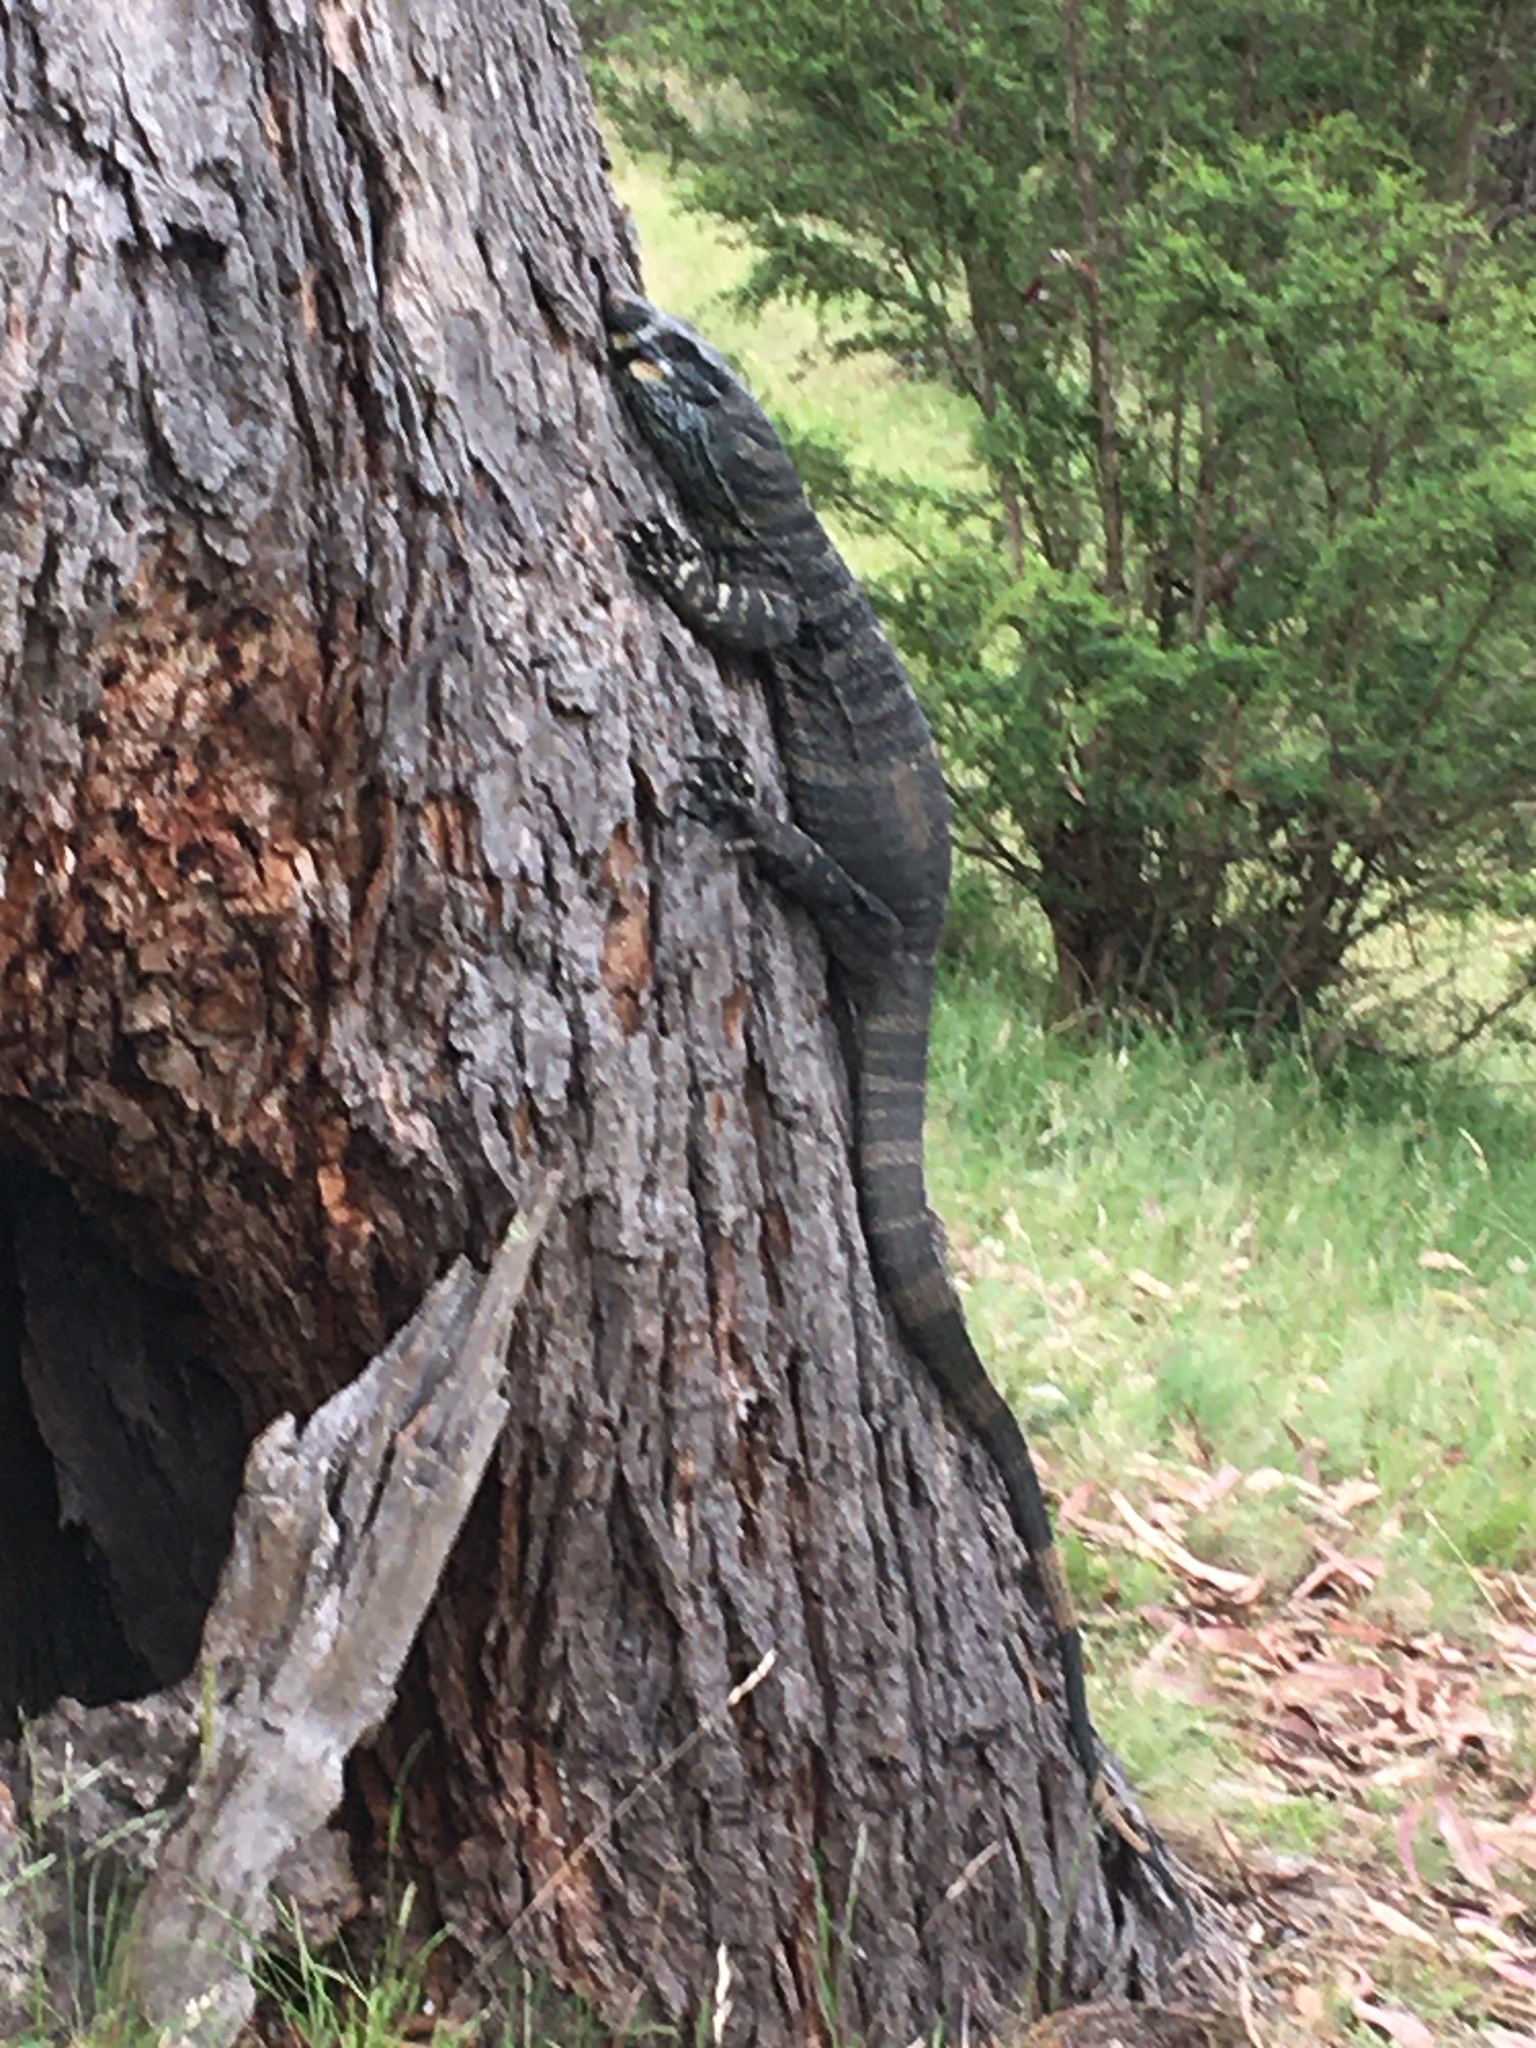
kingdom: Animalia
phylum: Chordata
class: Squamata
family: Varanidae
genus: Varanus
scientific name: Varanus varius
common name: Lace monitor
